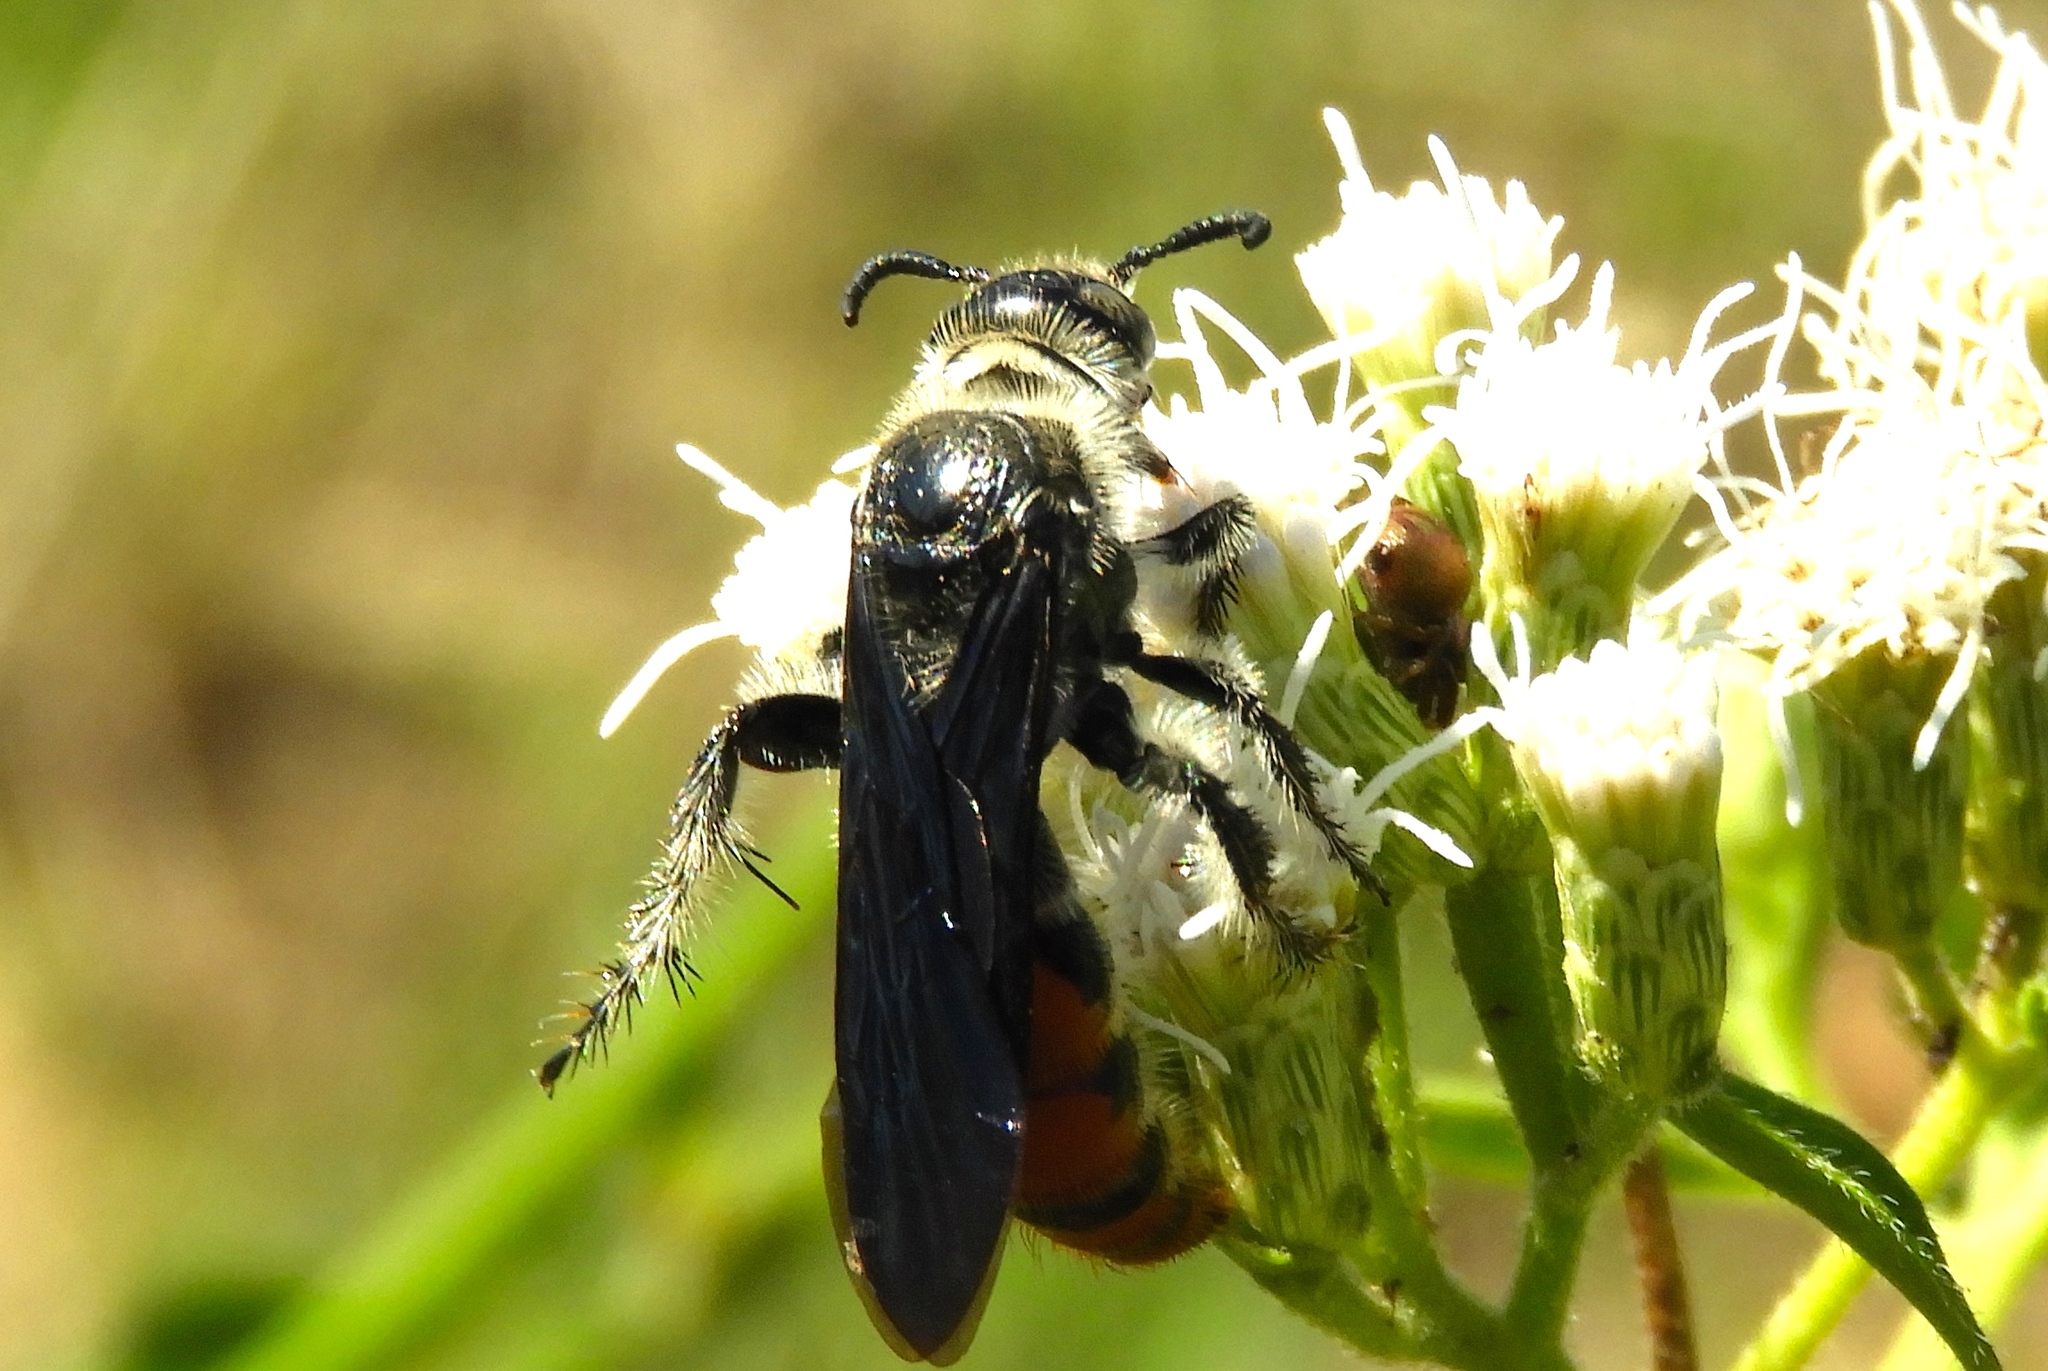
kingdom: Animalia
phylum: Arthropoda
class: Insecta
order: Hymenoptera
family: Scoliidae
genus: Dielis
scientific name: Dielis tolteca
